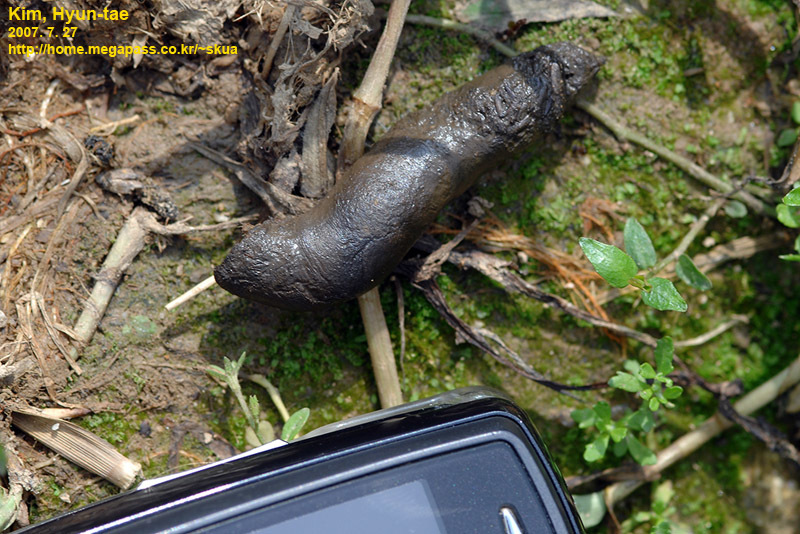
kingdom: Animalia
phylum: Chordata
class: Aves
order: Galliformes
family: Phasianidae
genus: Phasianus
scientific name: Phasianus colchicus
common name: Common pheasant
